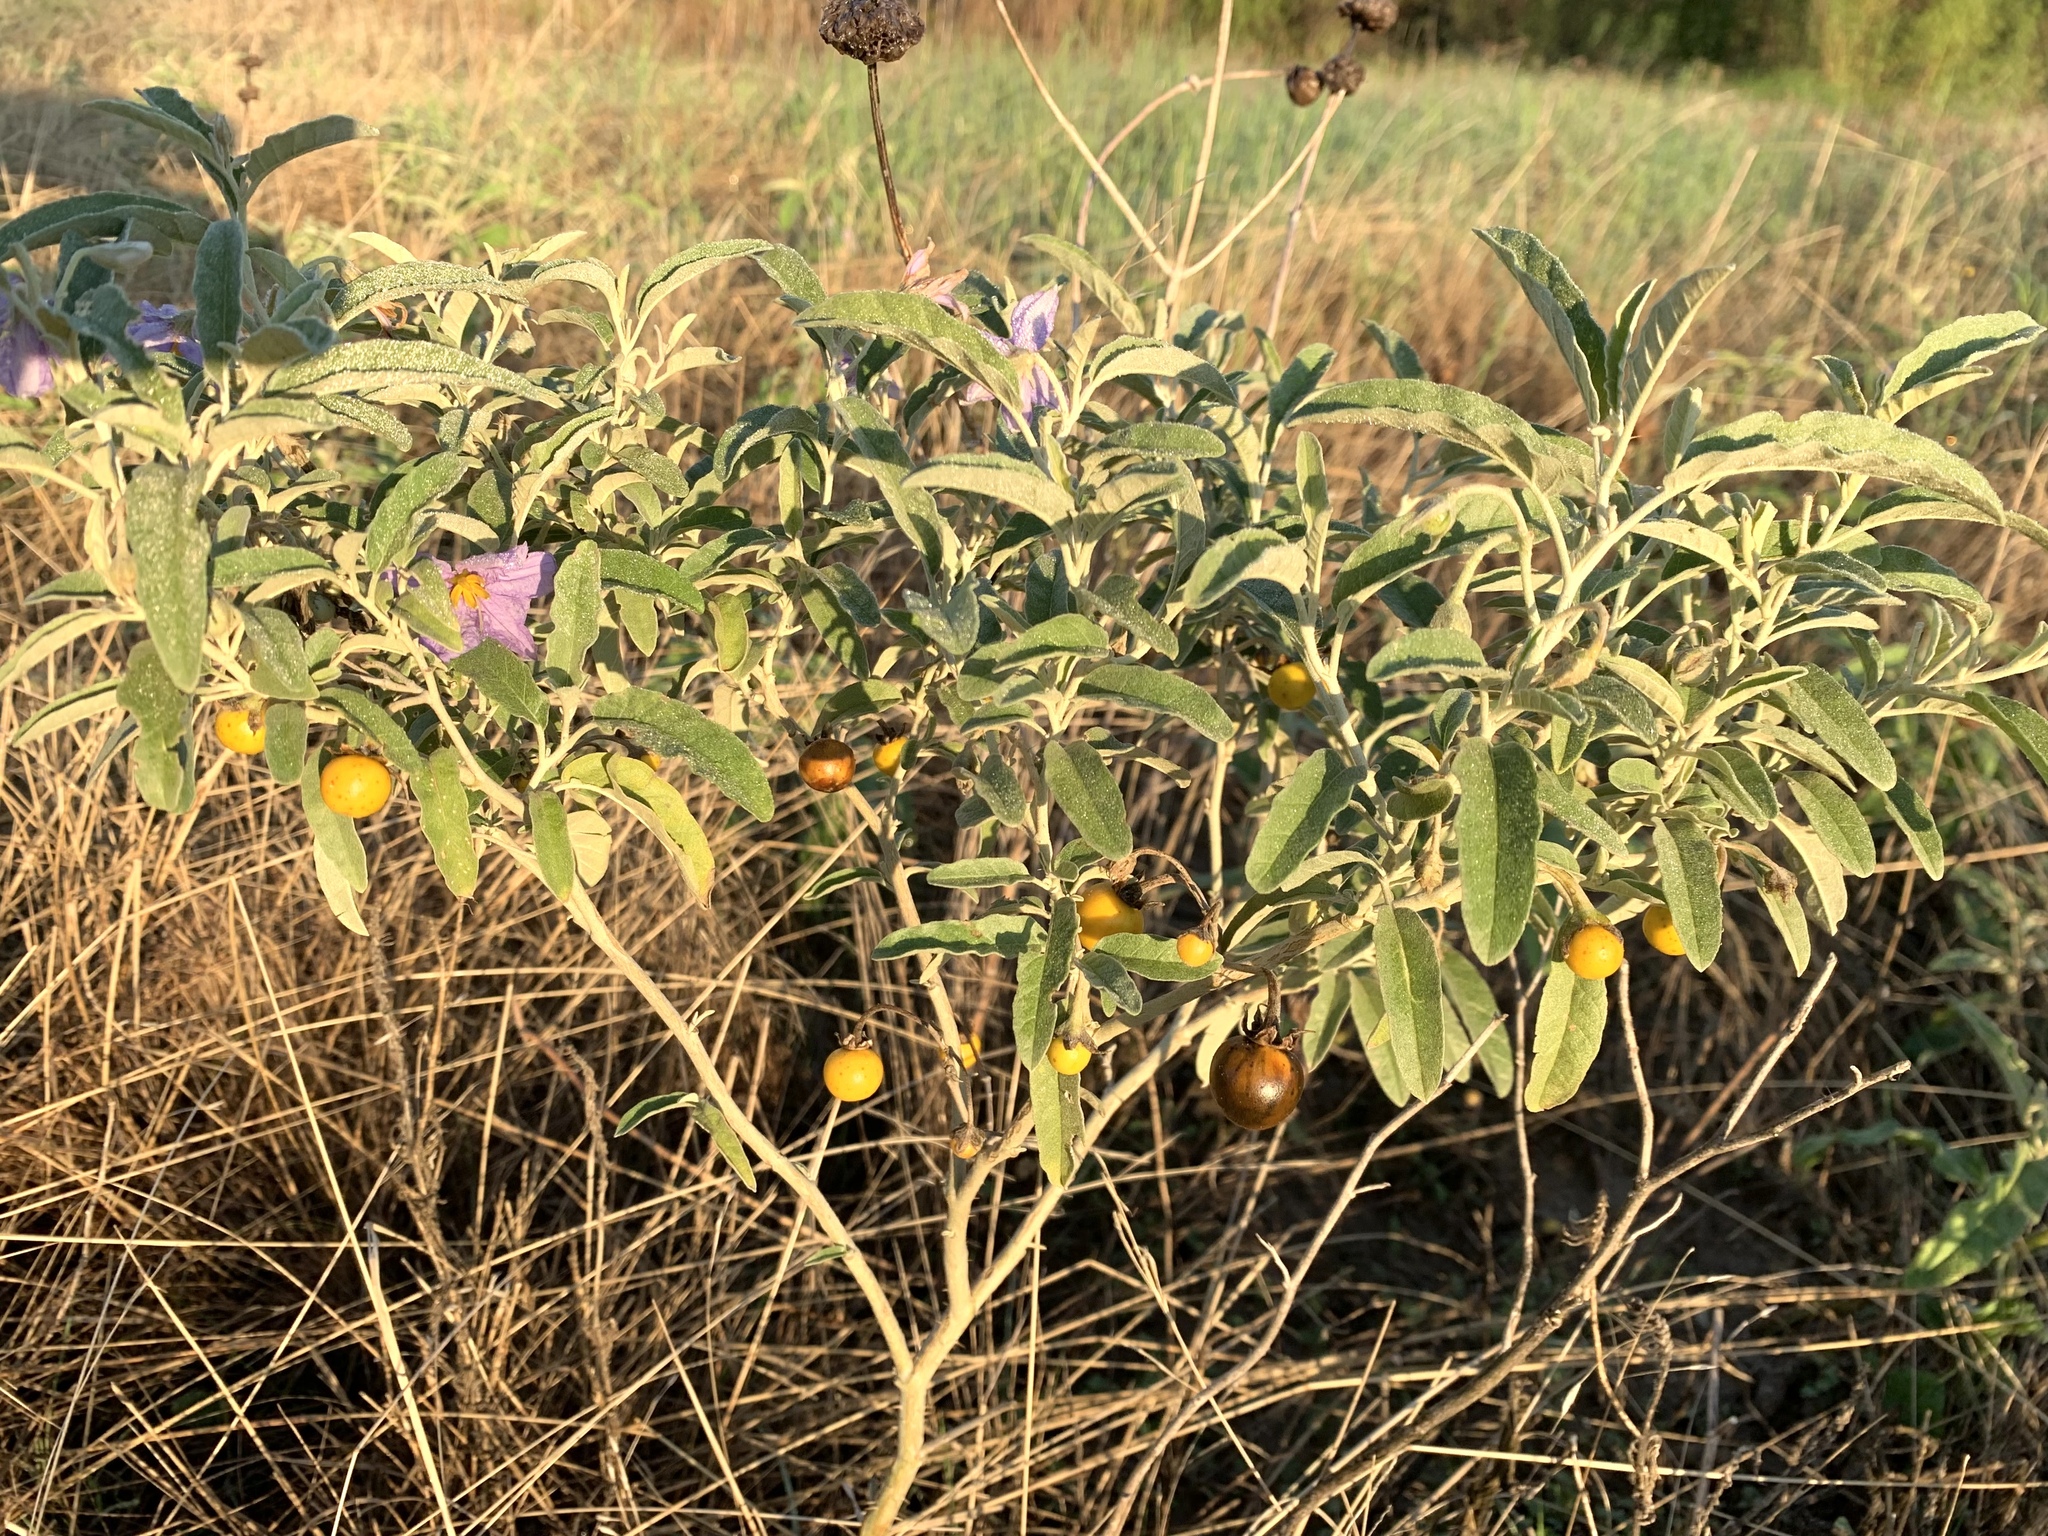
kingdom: Plantae
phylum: Tracheophyta
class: Magnoliopsida
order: Solanales
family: Solanaceae
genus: Solanum
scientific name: Solanum elaeagnifolium
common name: Silverleaf nightshade
